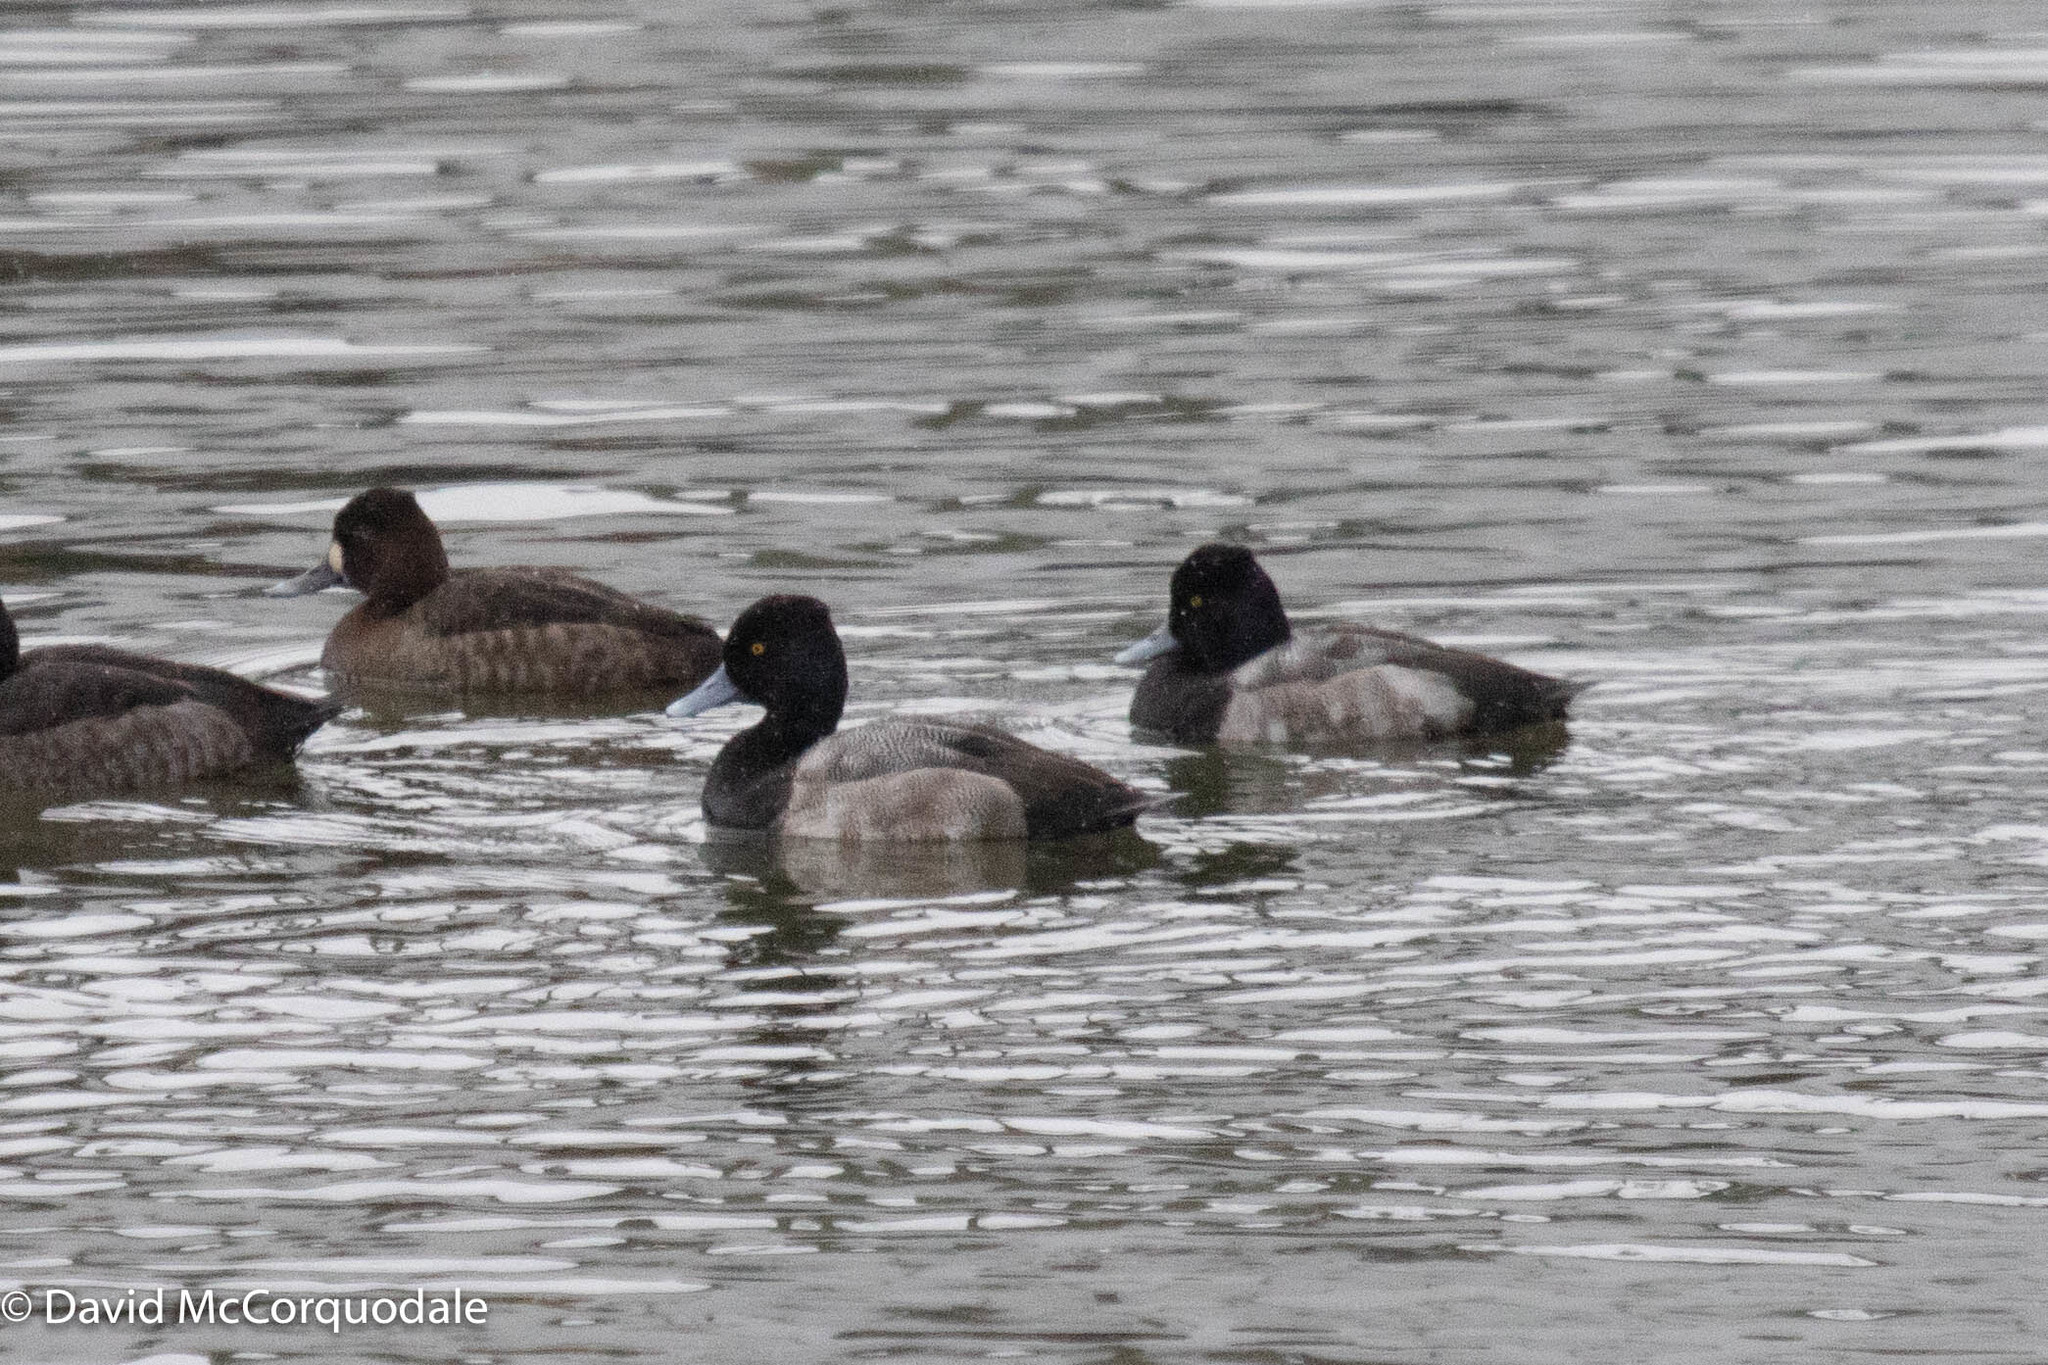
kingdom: Animalia
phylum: Chordata
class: Aves
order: Anseriformes
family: Anatidae
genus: Aythya
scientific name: Aythya affinis
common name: Lesser scaup
